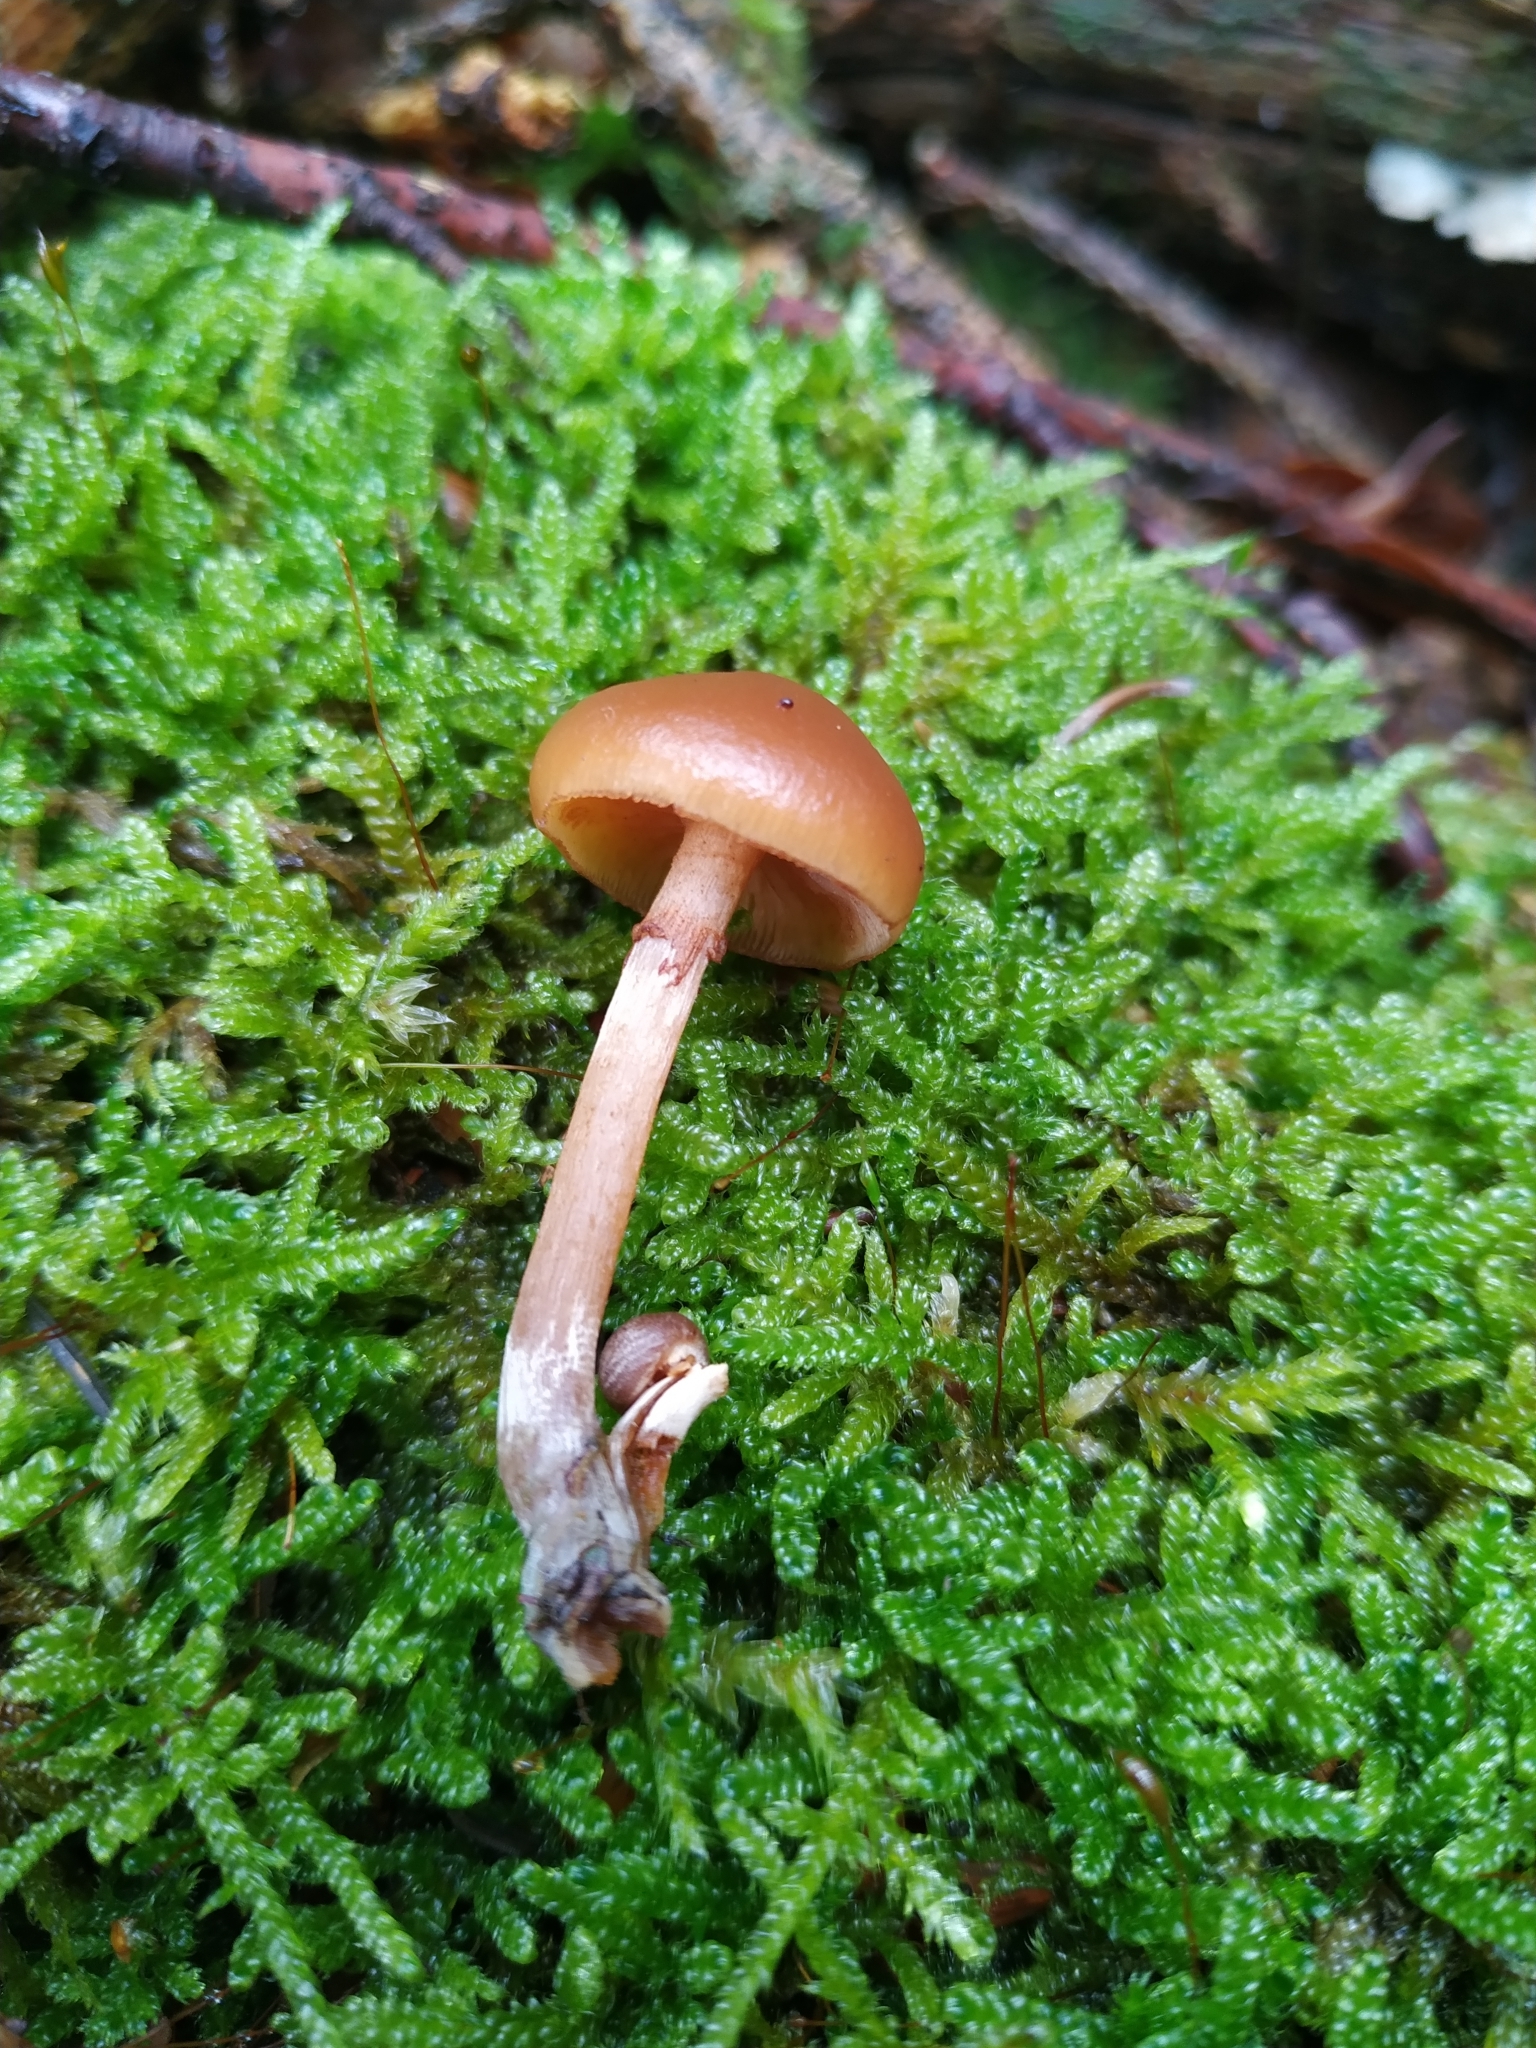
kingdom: Fungi
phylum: Basidiomycota
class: Agaricomycetes
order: Agaricales
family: Hymenogastraceae
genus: Galerina
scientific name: Galerina marginata
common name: Funeral bell
